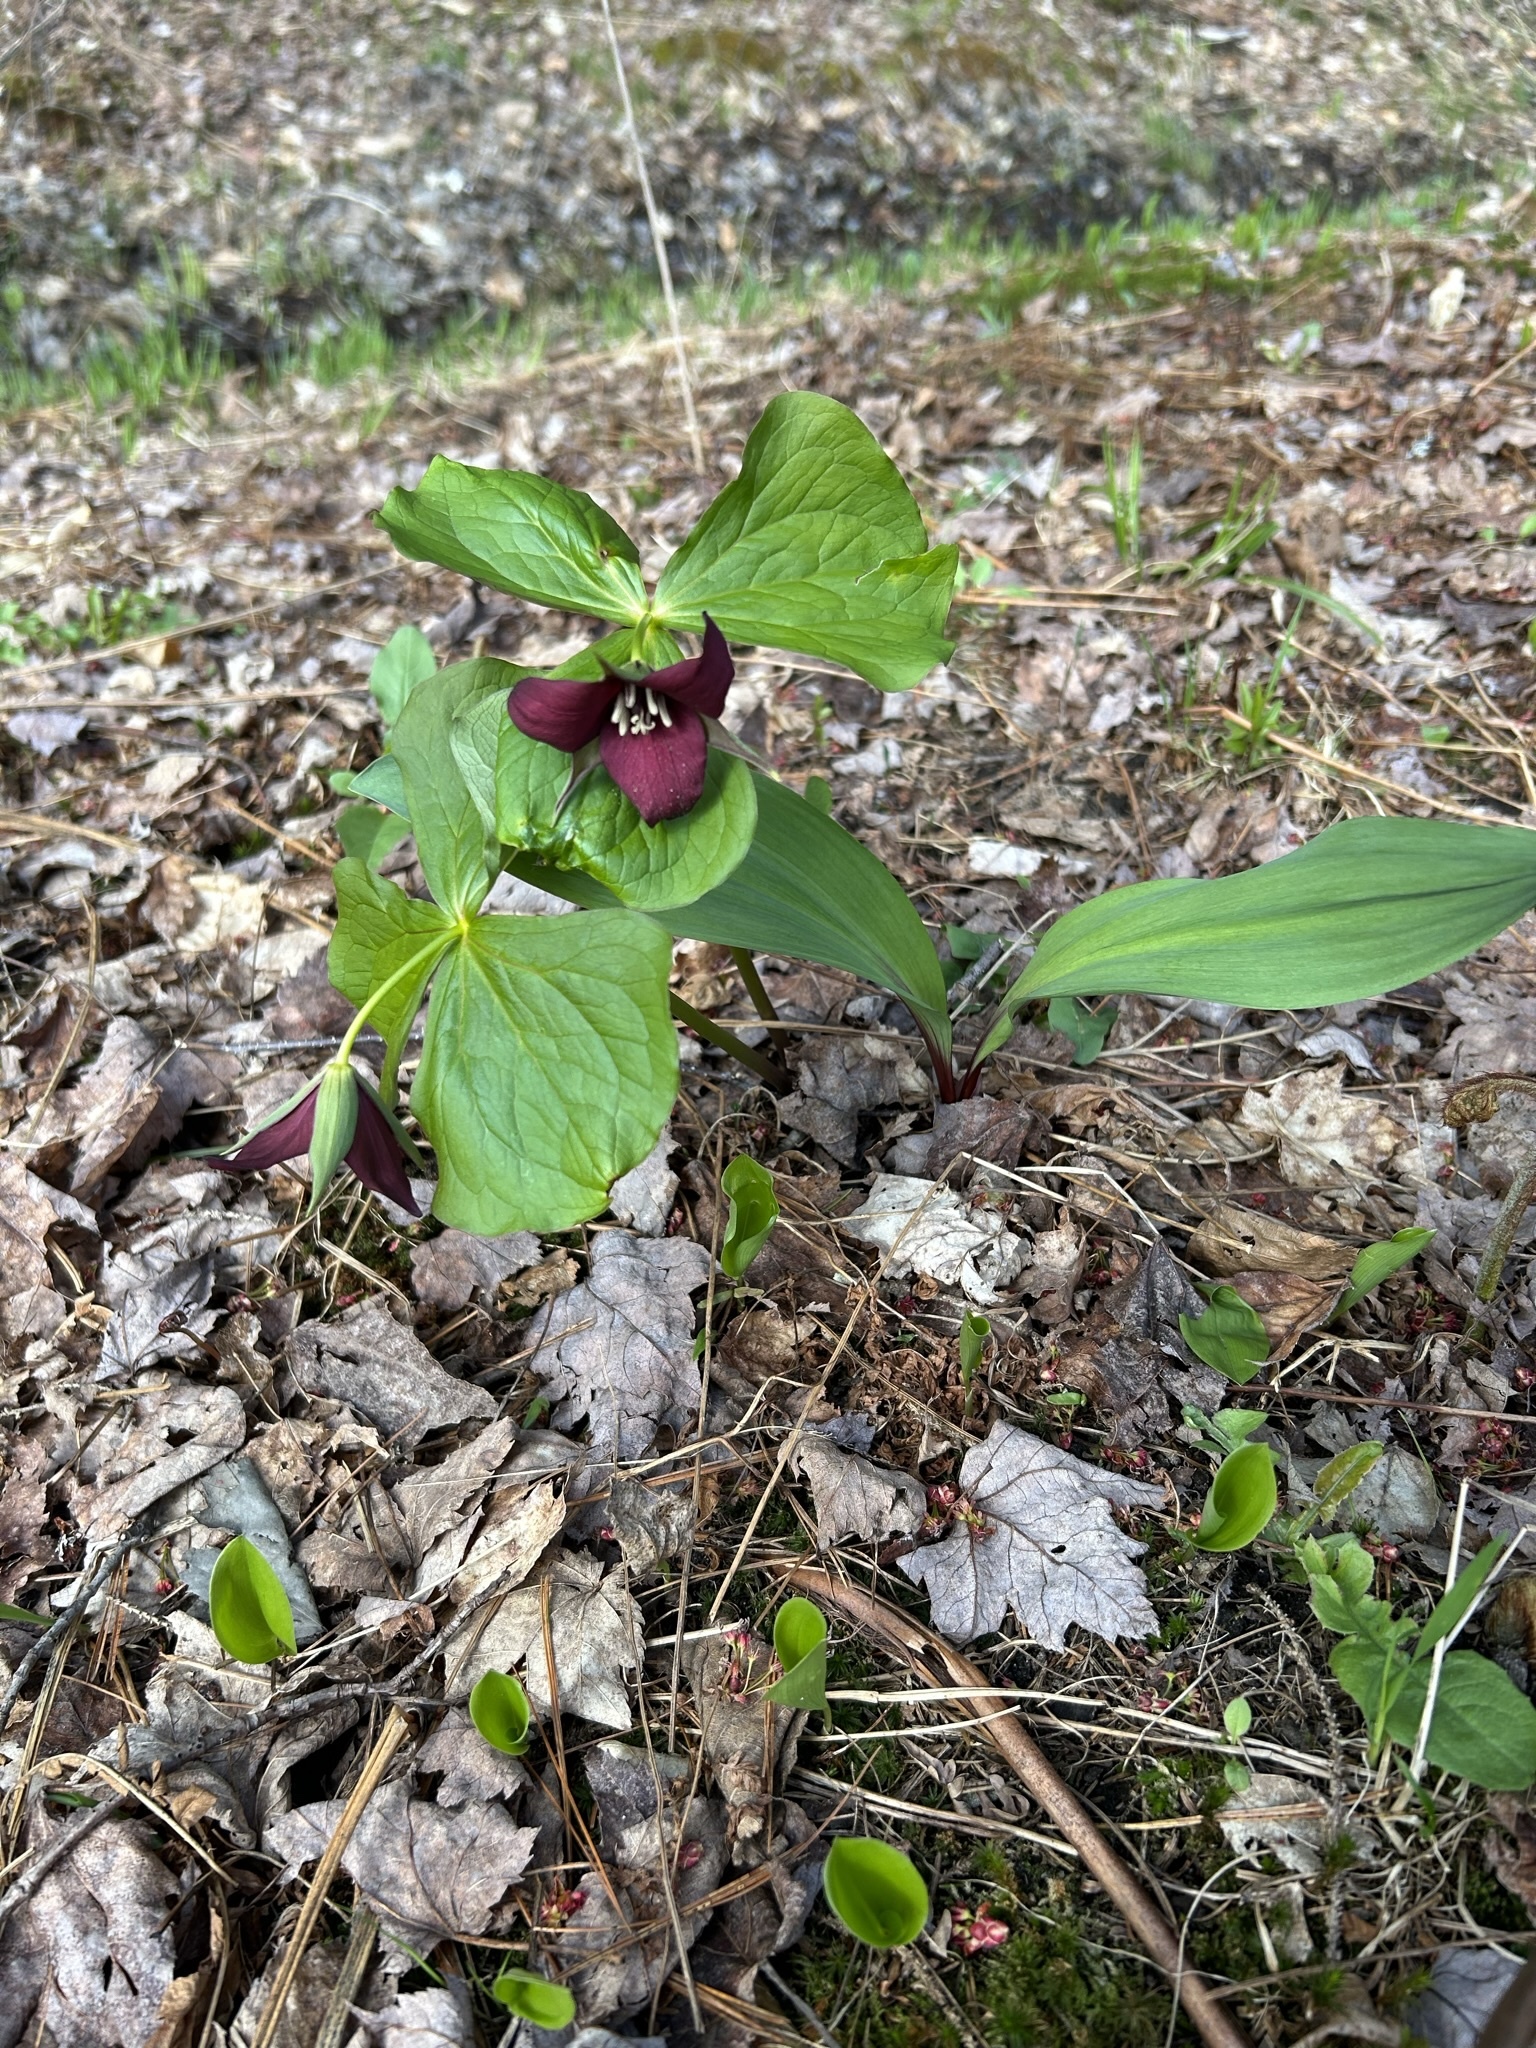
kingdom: Plantae
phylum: Tracheophyta
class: Liliopsida
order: Liliales
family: Melanthiaceae
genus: Trillium
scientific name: Trillium erectum
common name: Purple trillium
